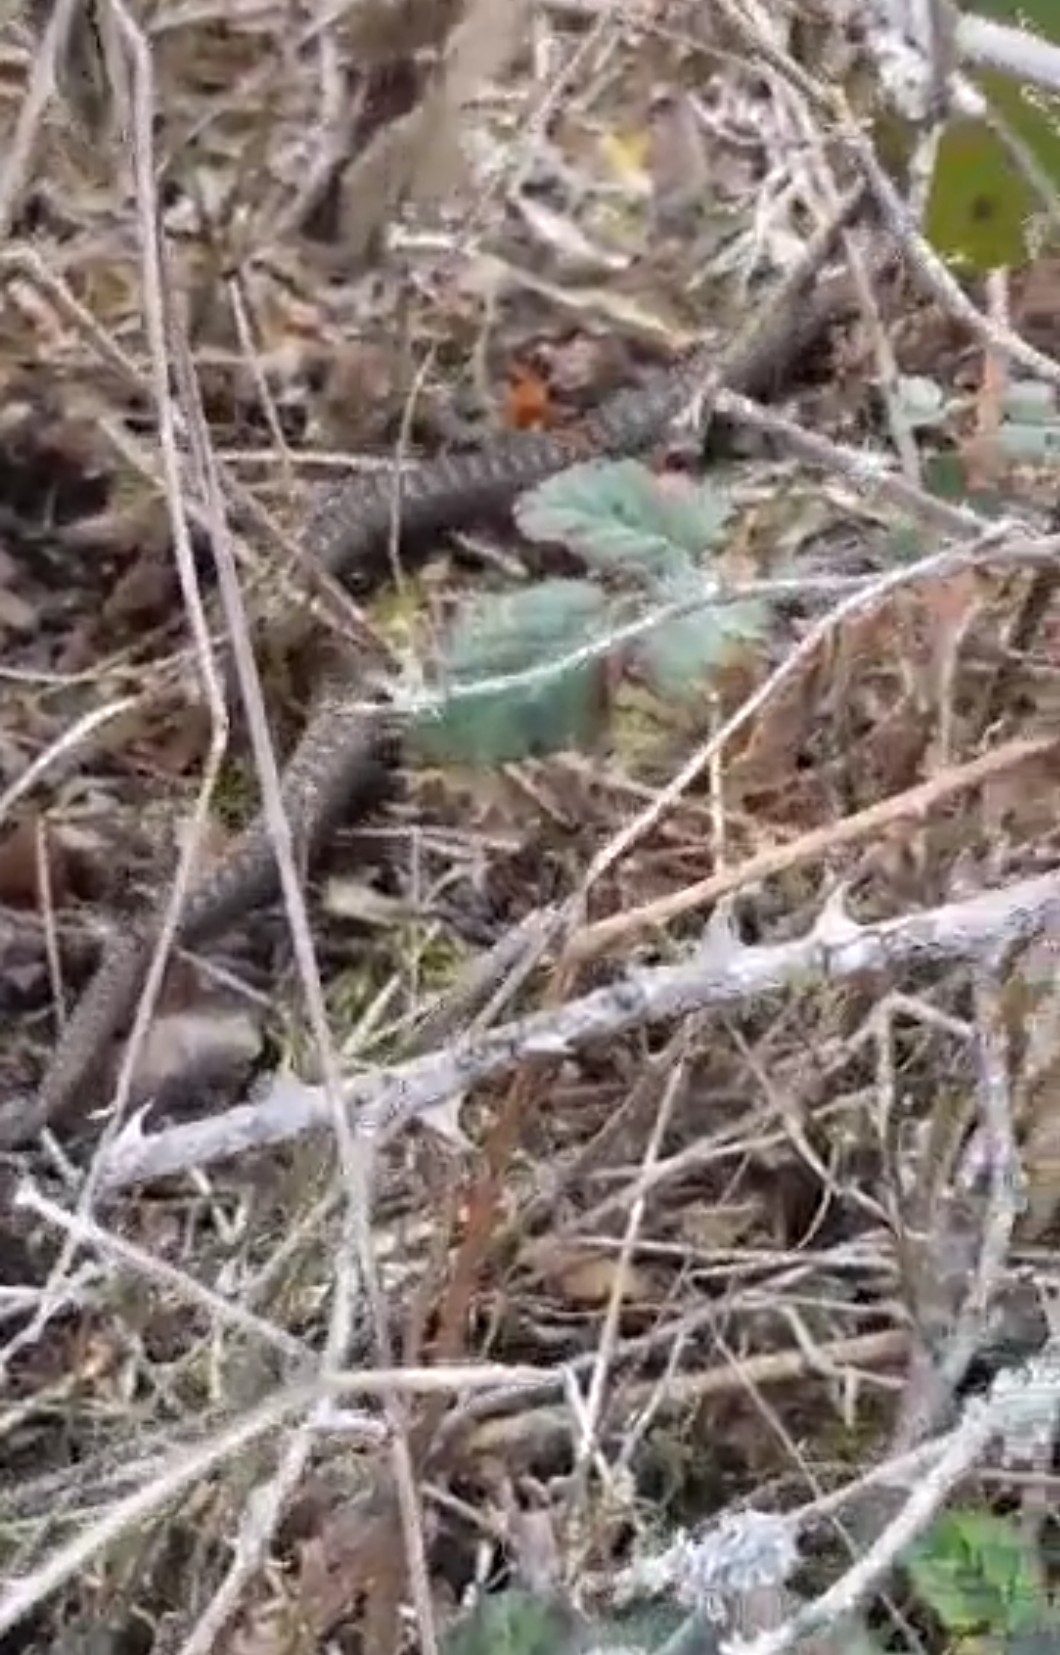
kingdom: Animalia
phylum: Chordata
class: Squamata
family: Viperidae
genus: Vipera
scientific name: Vipera berus
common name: Adder
